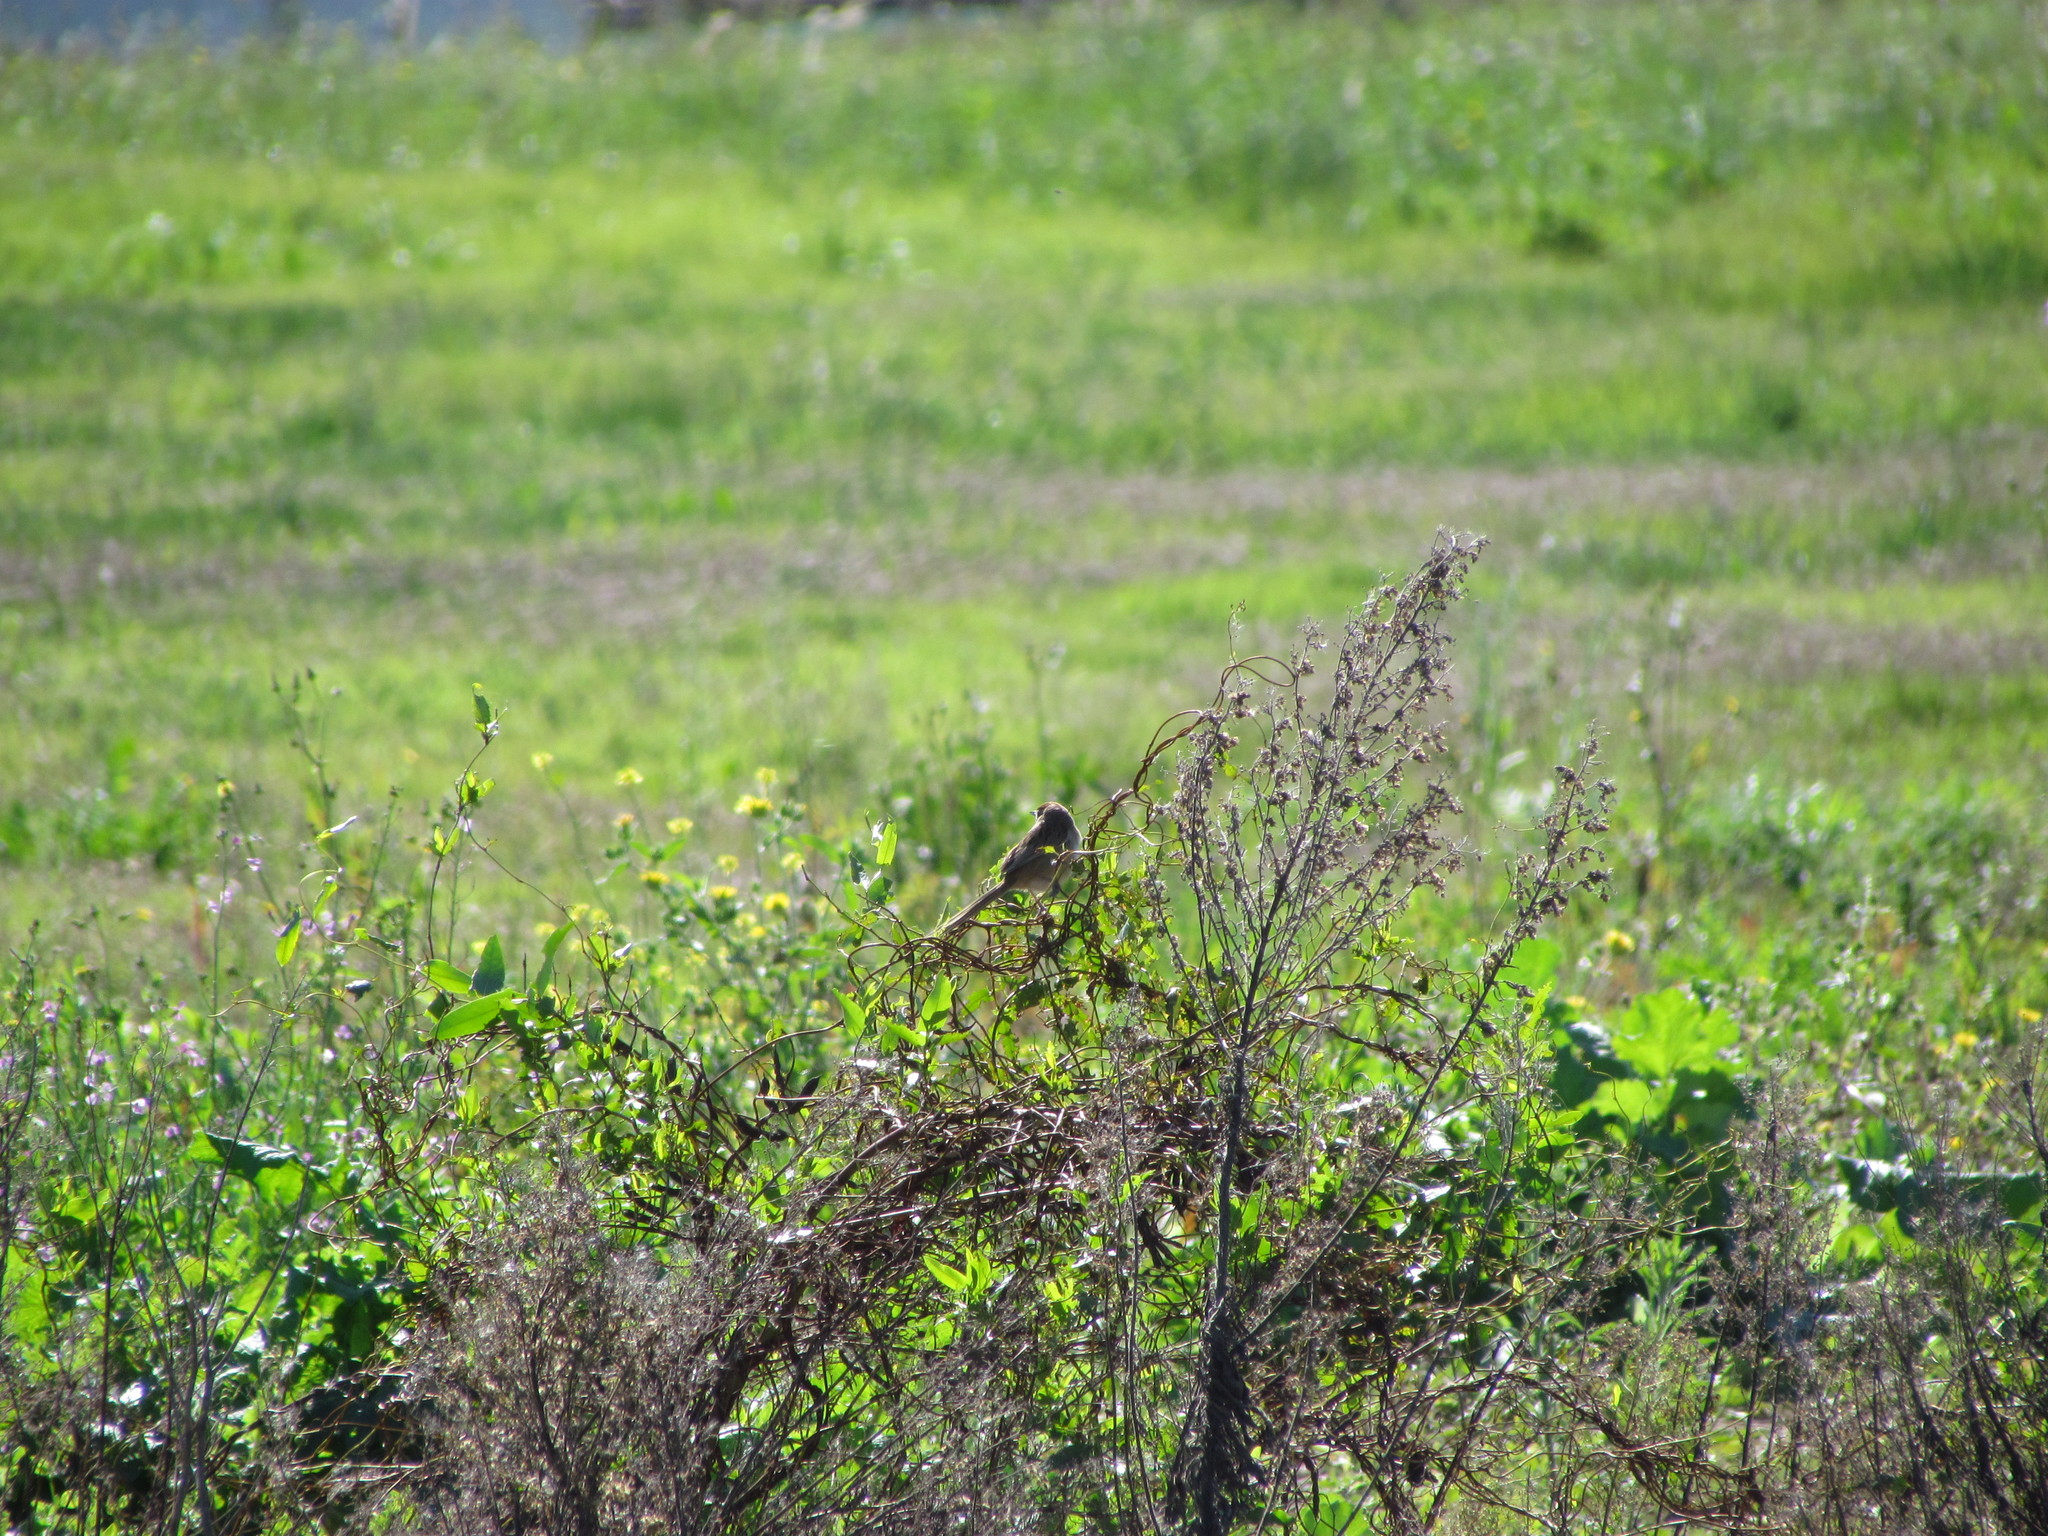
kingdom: Animalia
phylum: Chordata
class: Aves
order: Passeriformes
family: Furnariidae
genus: Schoeniophylax
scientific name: Schoeniophylax phryganophilus
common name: Chotoy spinetail
